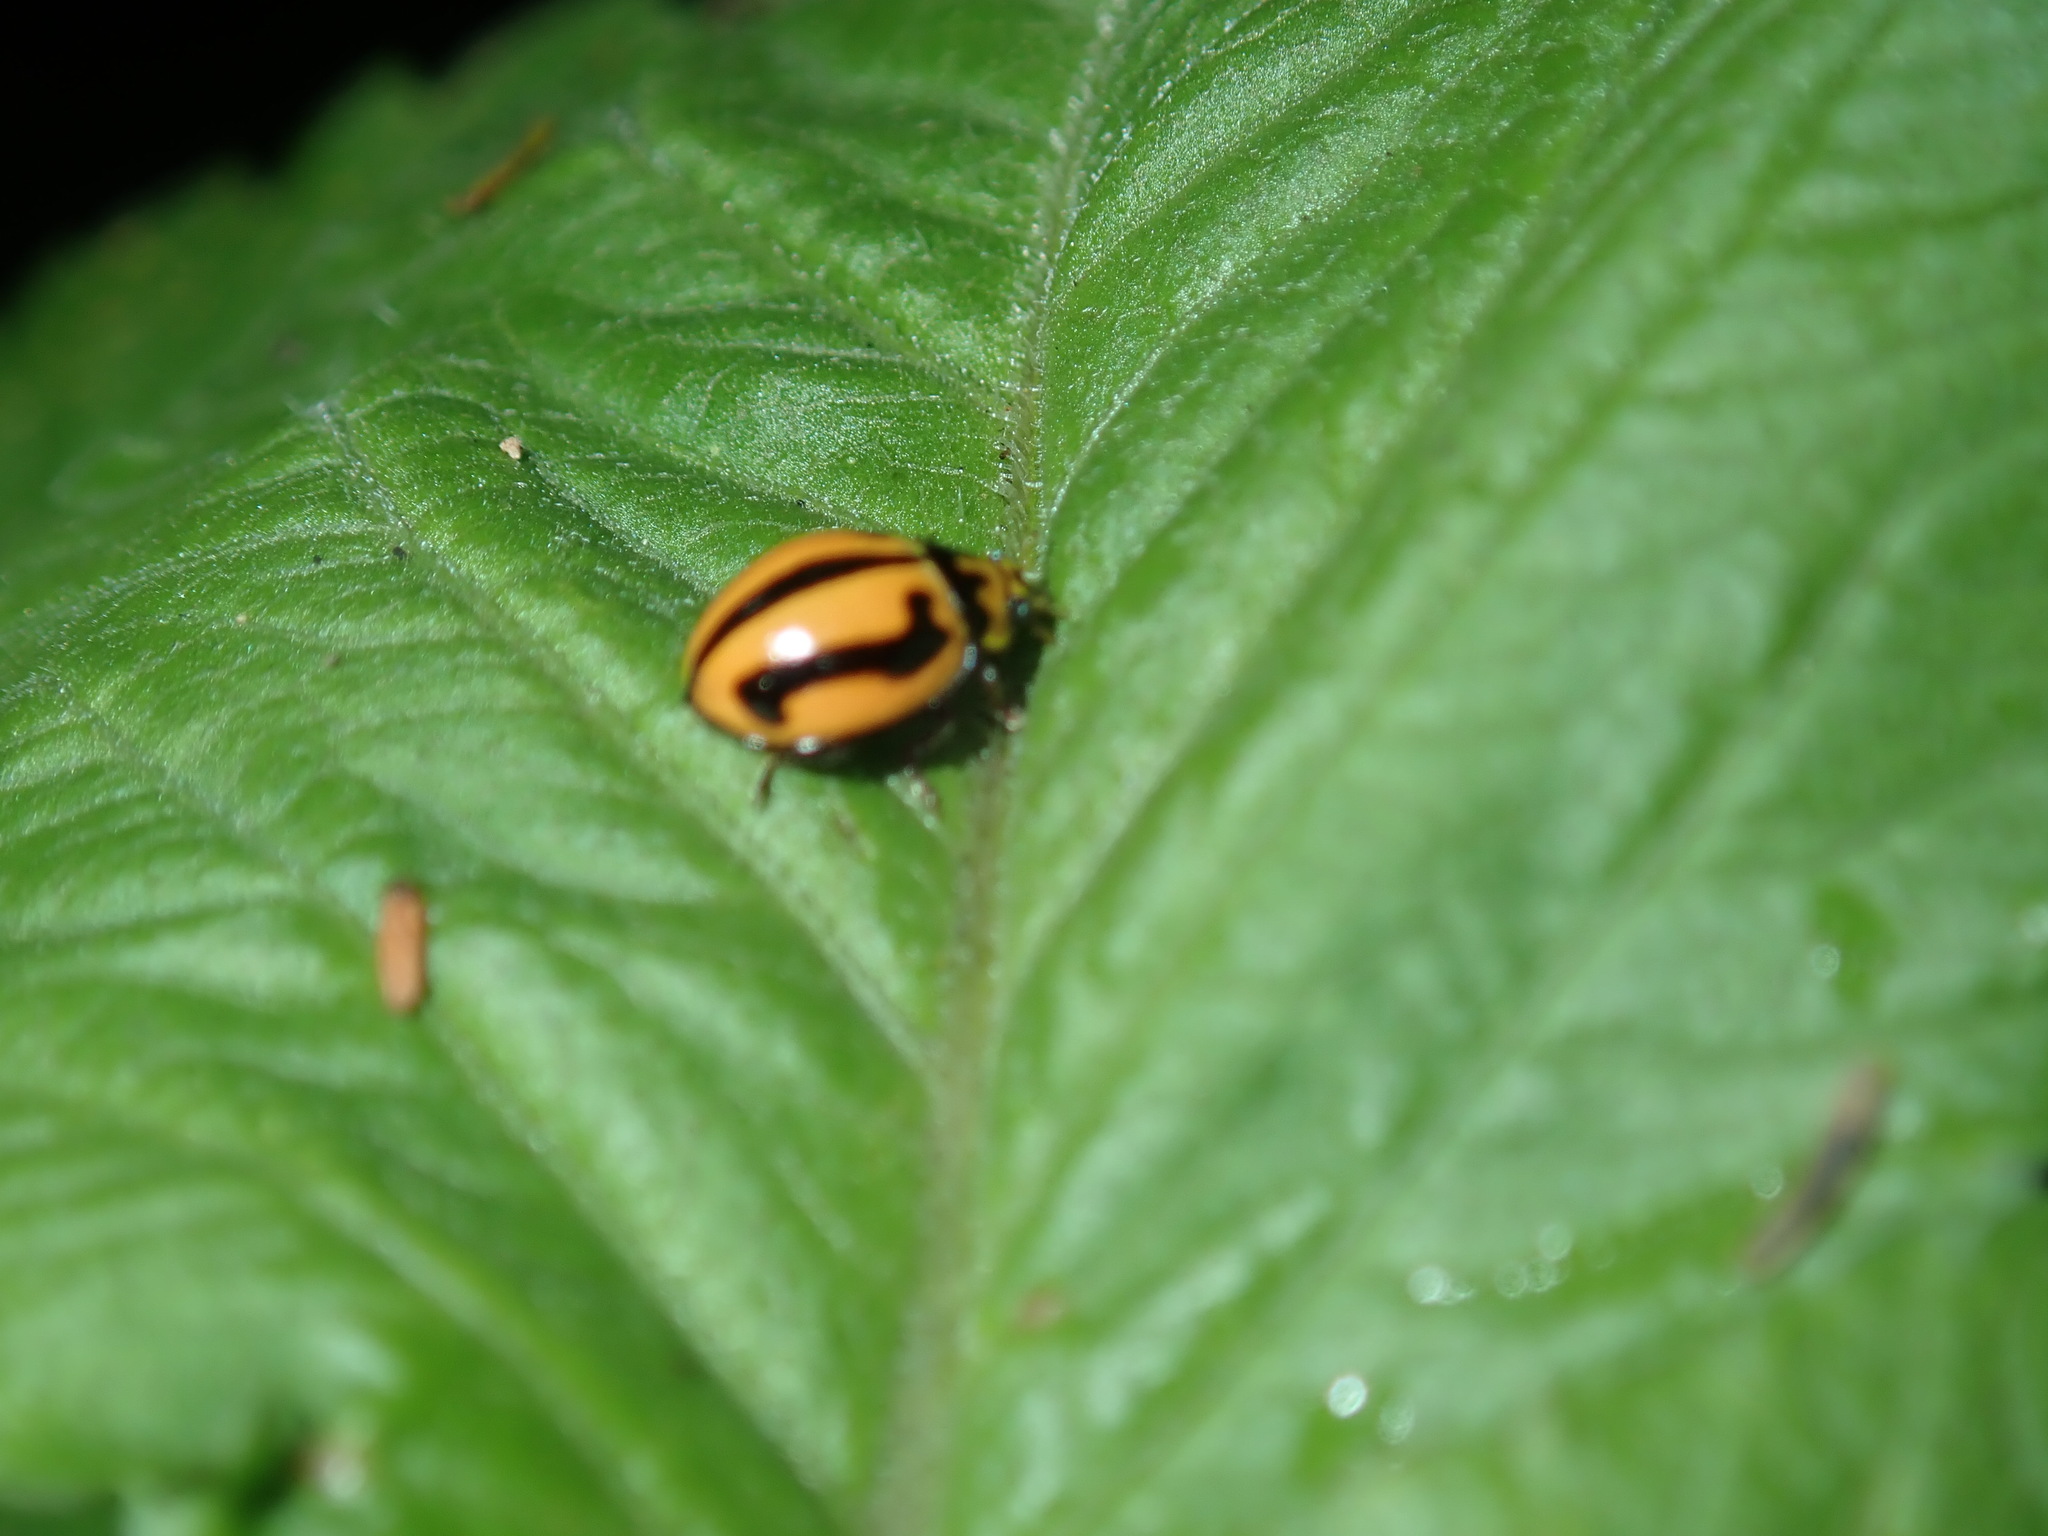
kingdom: Animalia
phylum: Arthropoda
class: Insecta
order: Coleoptera
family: Coccinellidae
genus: Micraspis
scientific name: Micraspis frenata
